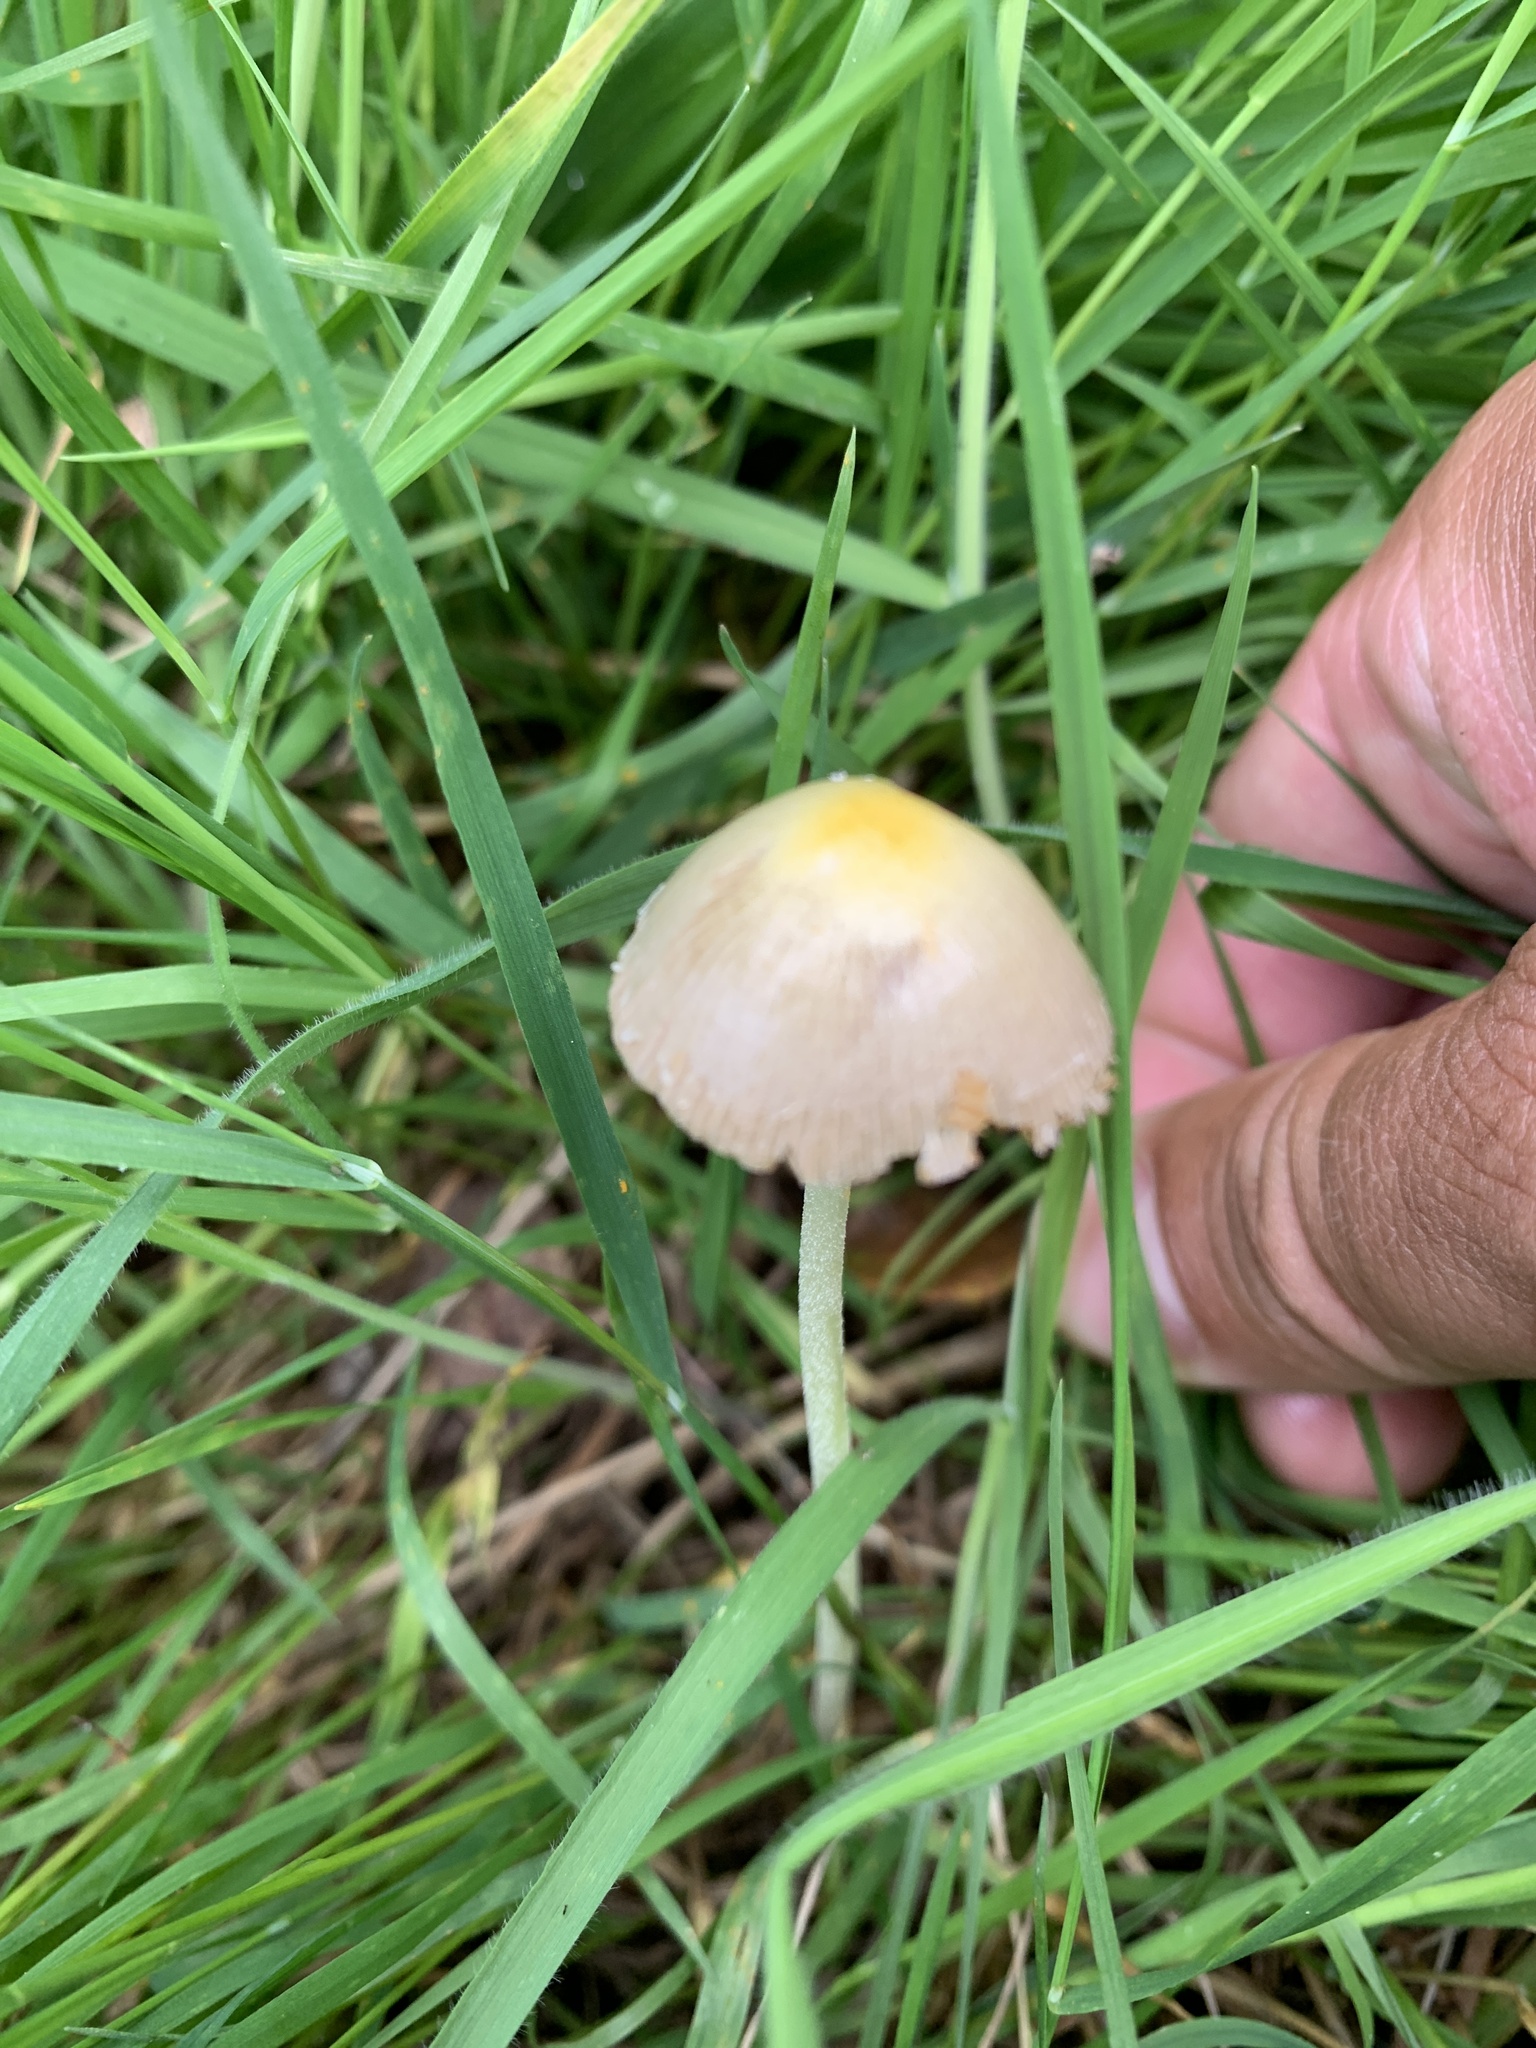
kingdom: Fungi
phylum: Basidiomycota
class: Agaricomycetes
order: Agaricales
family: Bolbitiaceae
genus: Bolbitius
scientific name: Bolbitius titubans
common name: Yellow fieldcap
